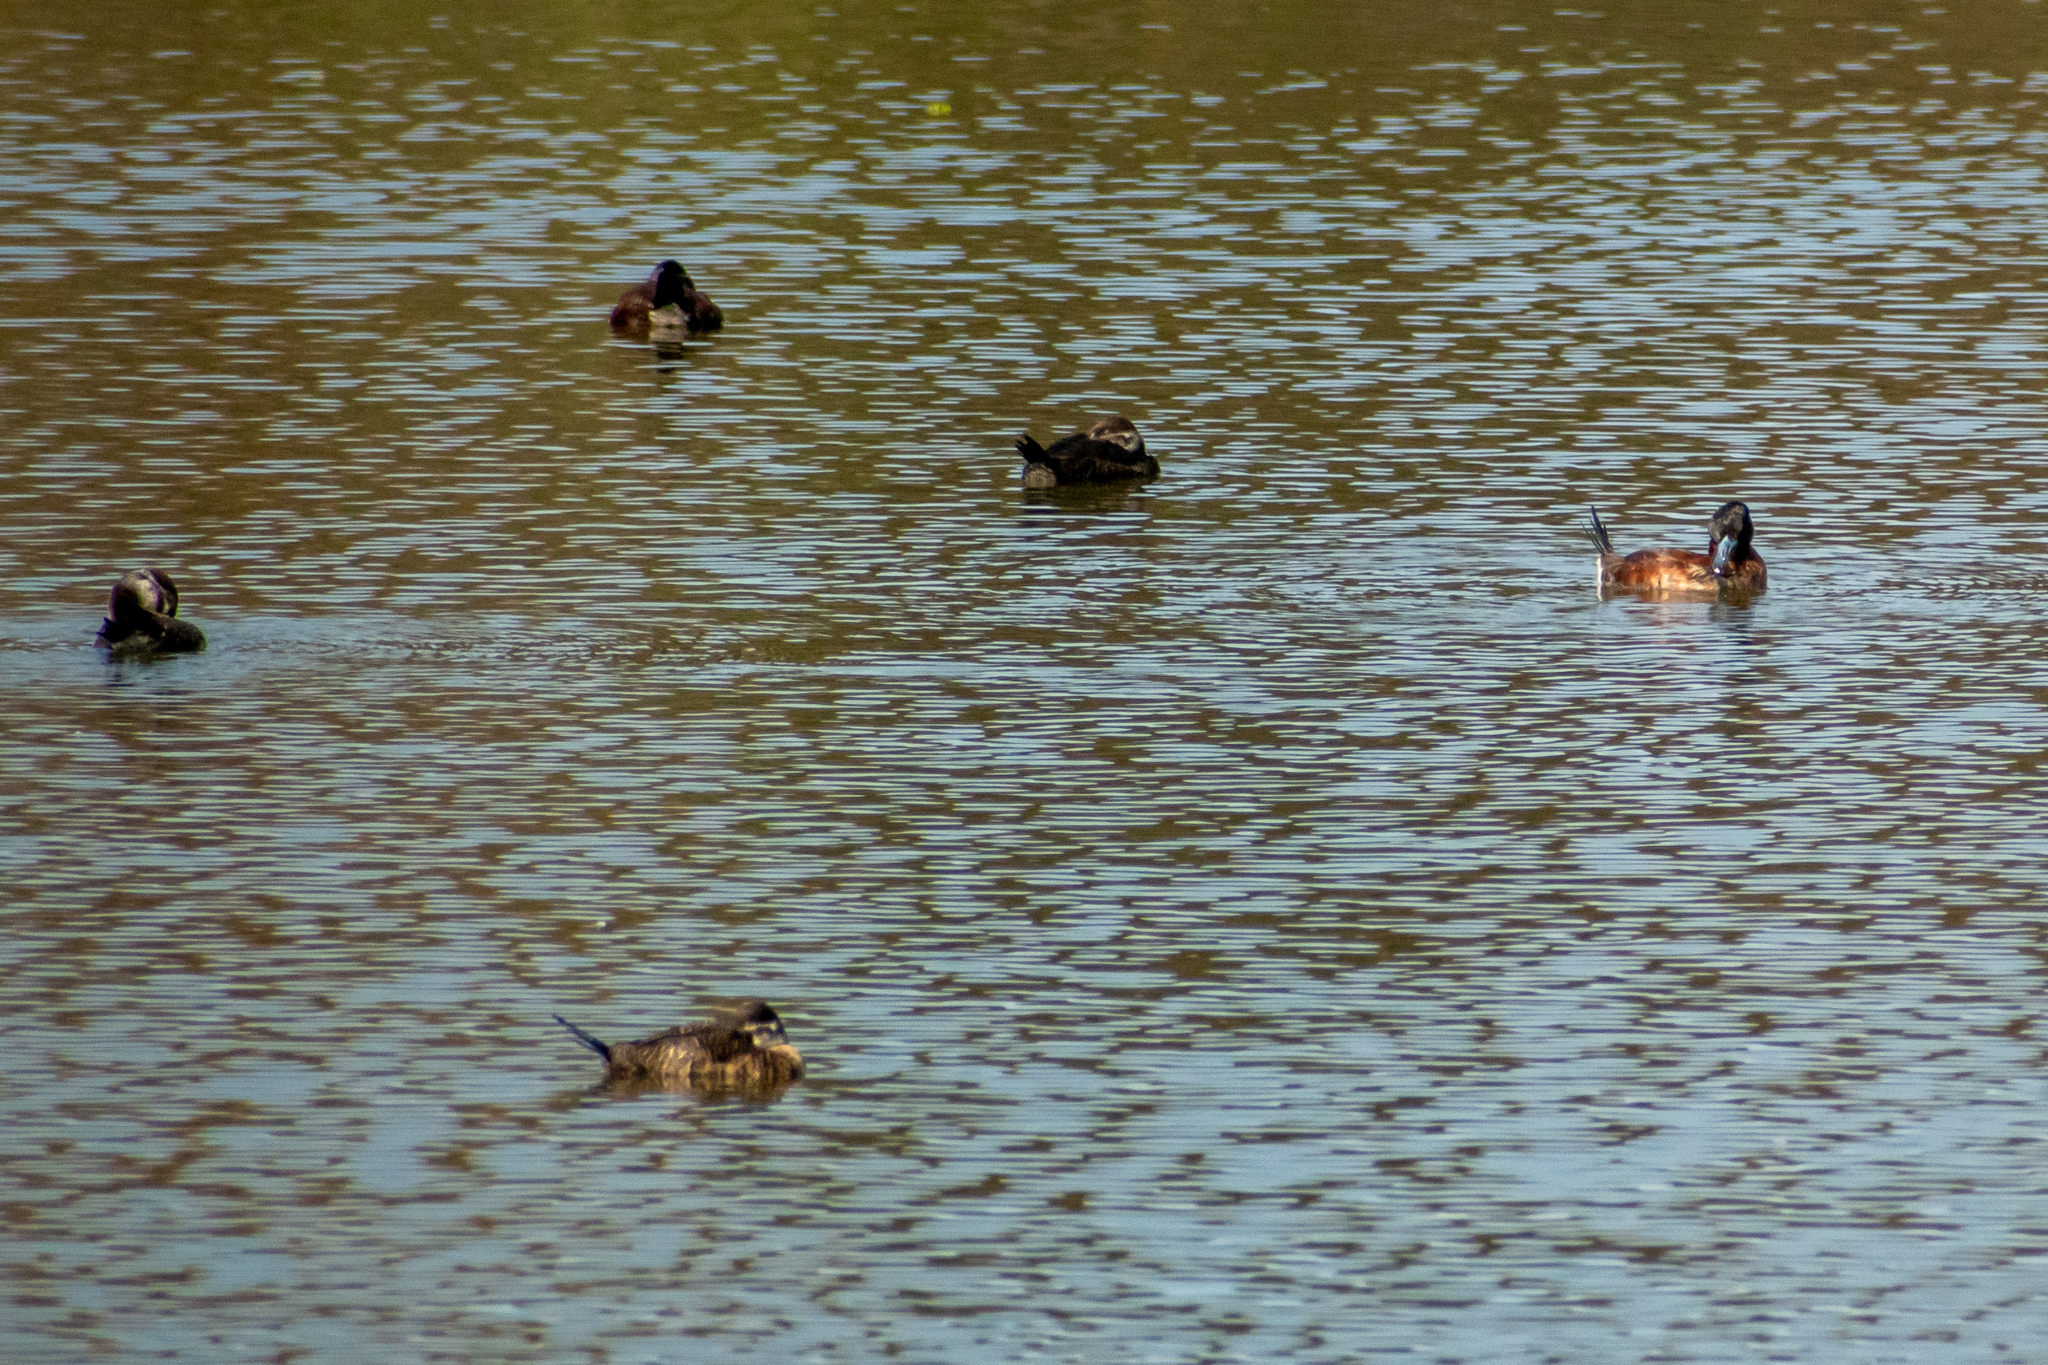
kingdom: Animalia
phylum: Chordata
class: Aves
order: Anseriformes
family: Anatidae
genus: Oxyura
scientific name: Oxyura vittata
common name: Lake duck
